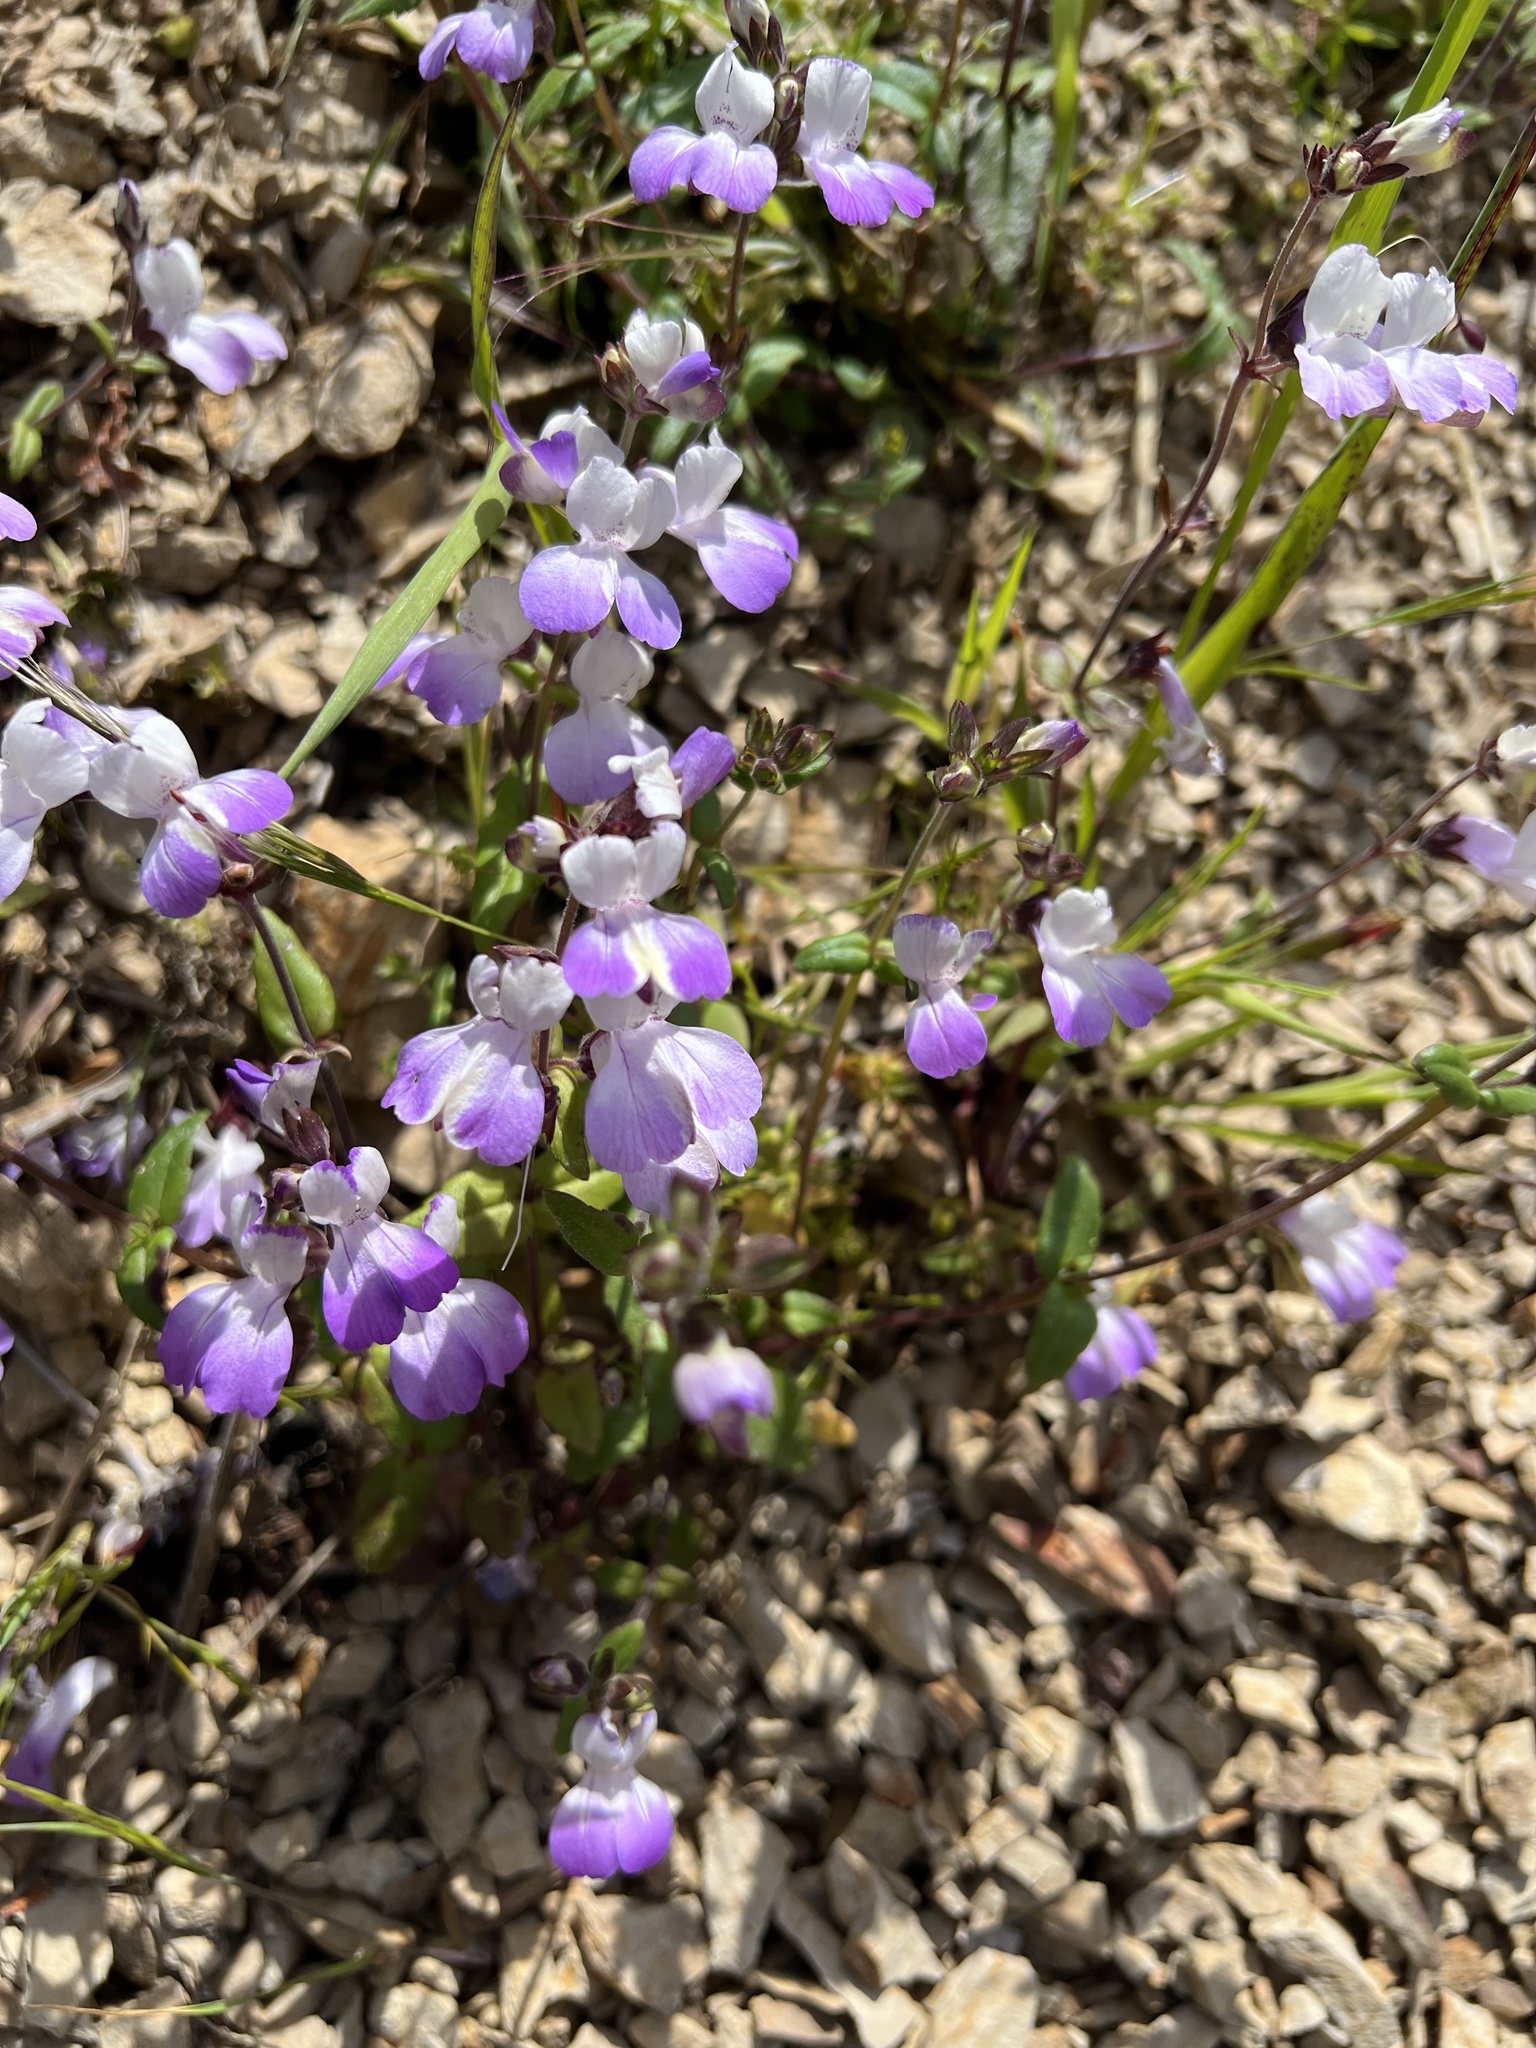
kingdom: Plantae
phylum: Tracheophyta
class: Magnoliopsida
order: Lamiales
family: Plantaginaceae
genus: Collinsia
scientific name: Collinsia multicolor
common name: San francisco collinsia
